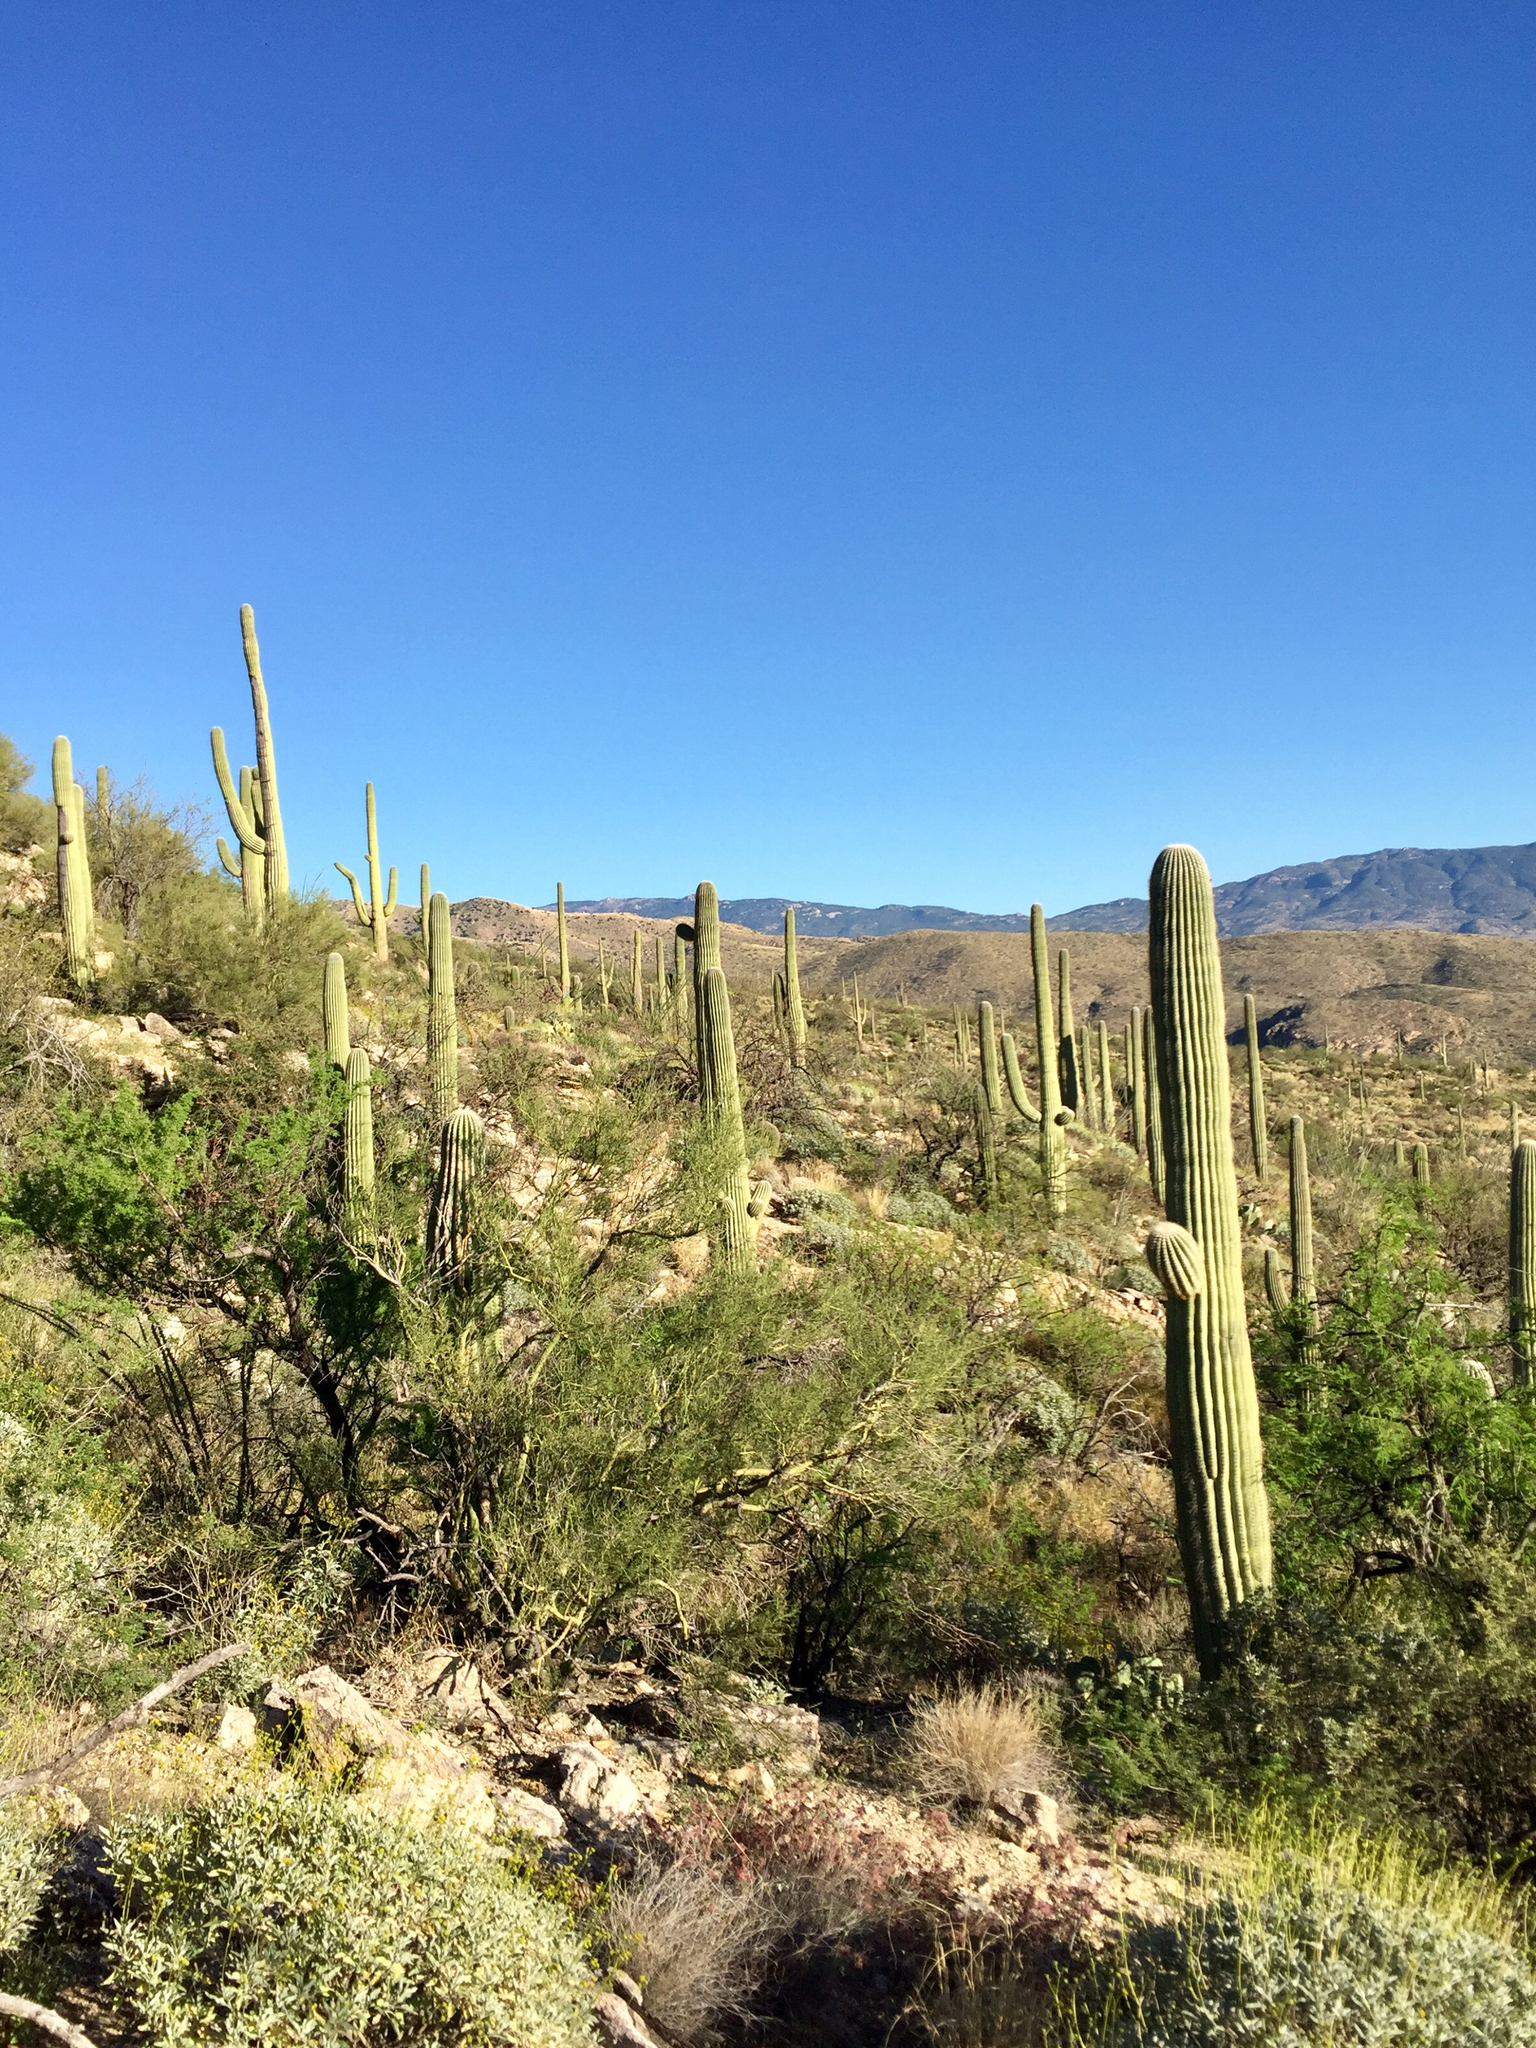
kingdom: Plantae
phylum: Tracheophyta
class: Magnoliopsida
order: Caryophyllales
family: Cactaceae
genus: Carnegiea
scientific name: Carnegiea gigantea
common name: Saguaro
